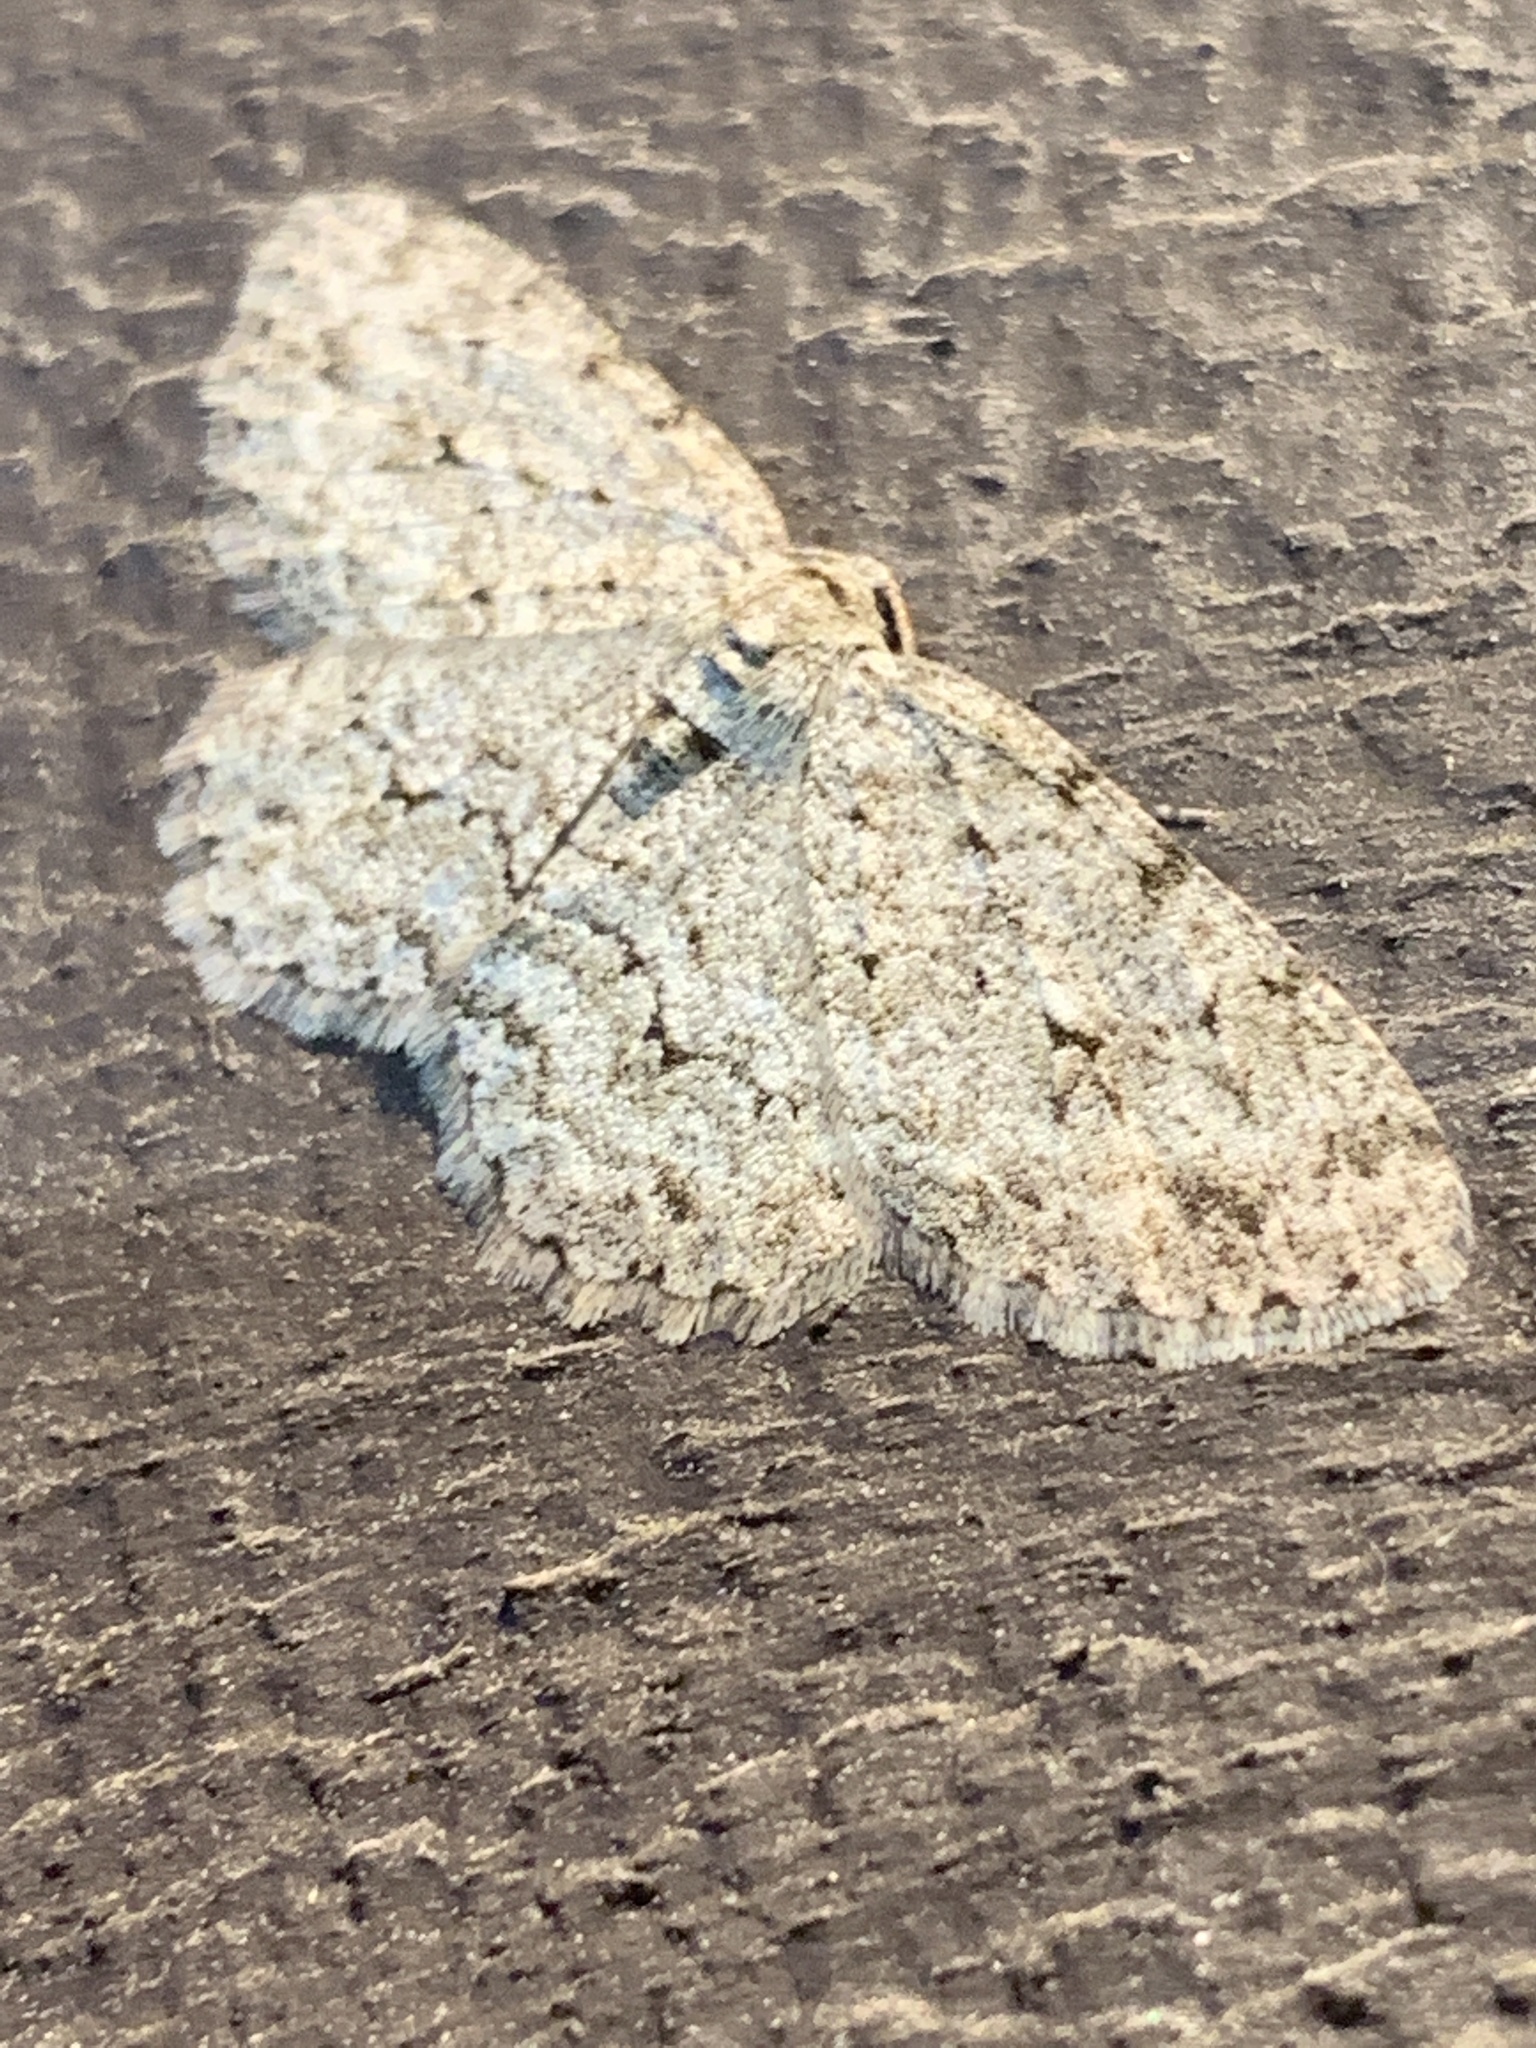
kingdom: Animalia
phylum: Arthropoda
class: Insecta
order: Lepidoptera
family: Geometridae
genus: Ectropis
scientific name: Ectropis crepuscularia
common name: Engrailed
